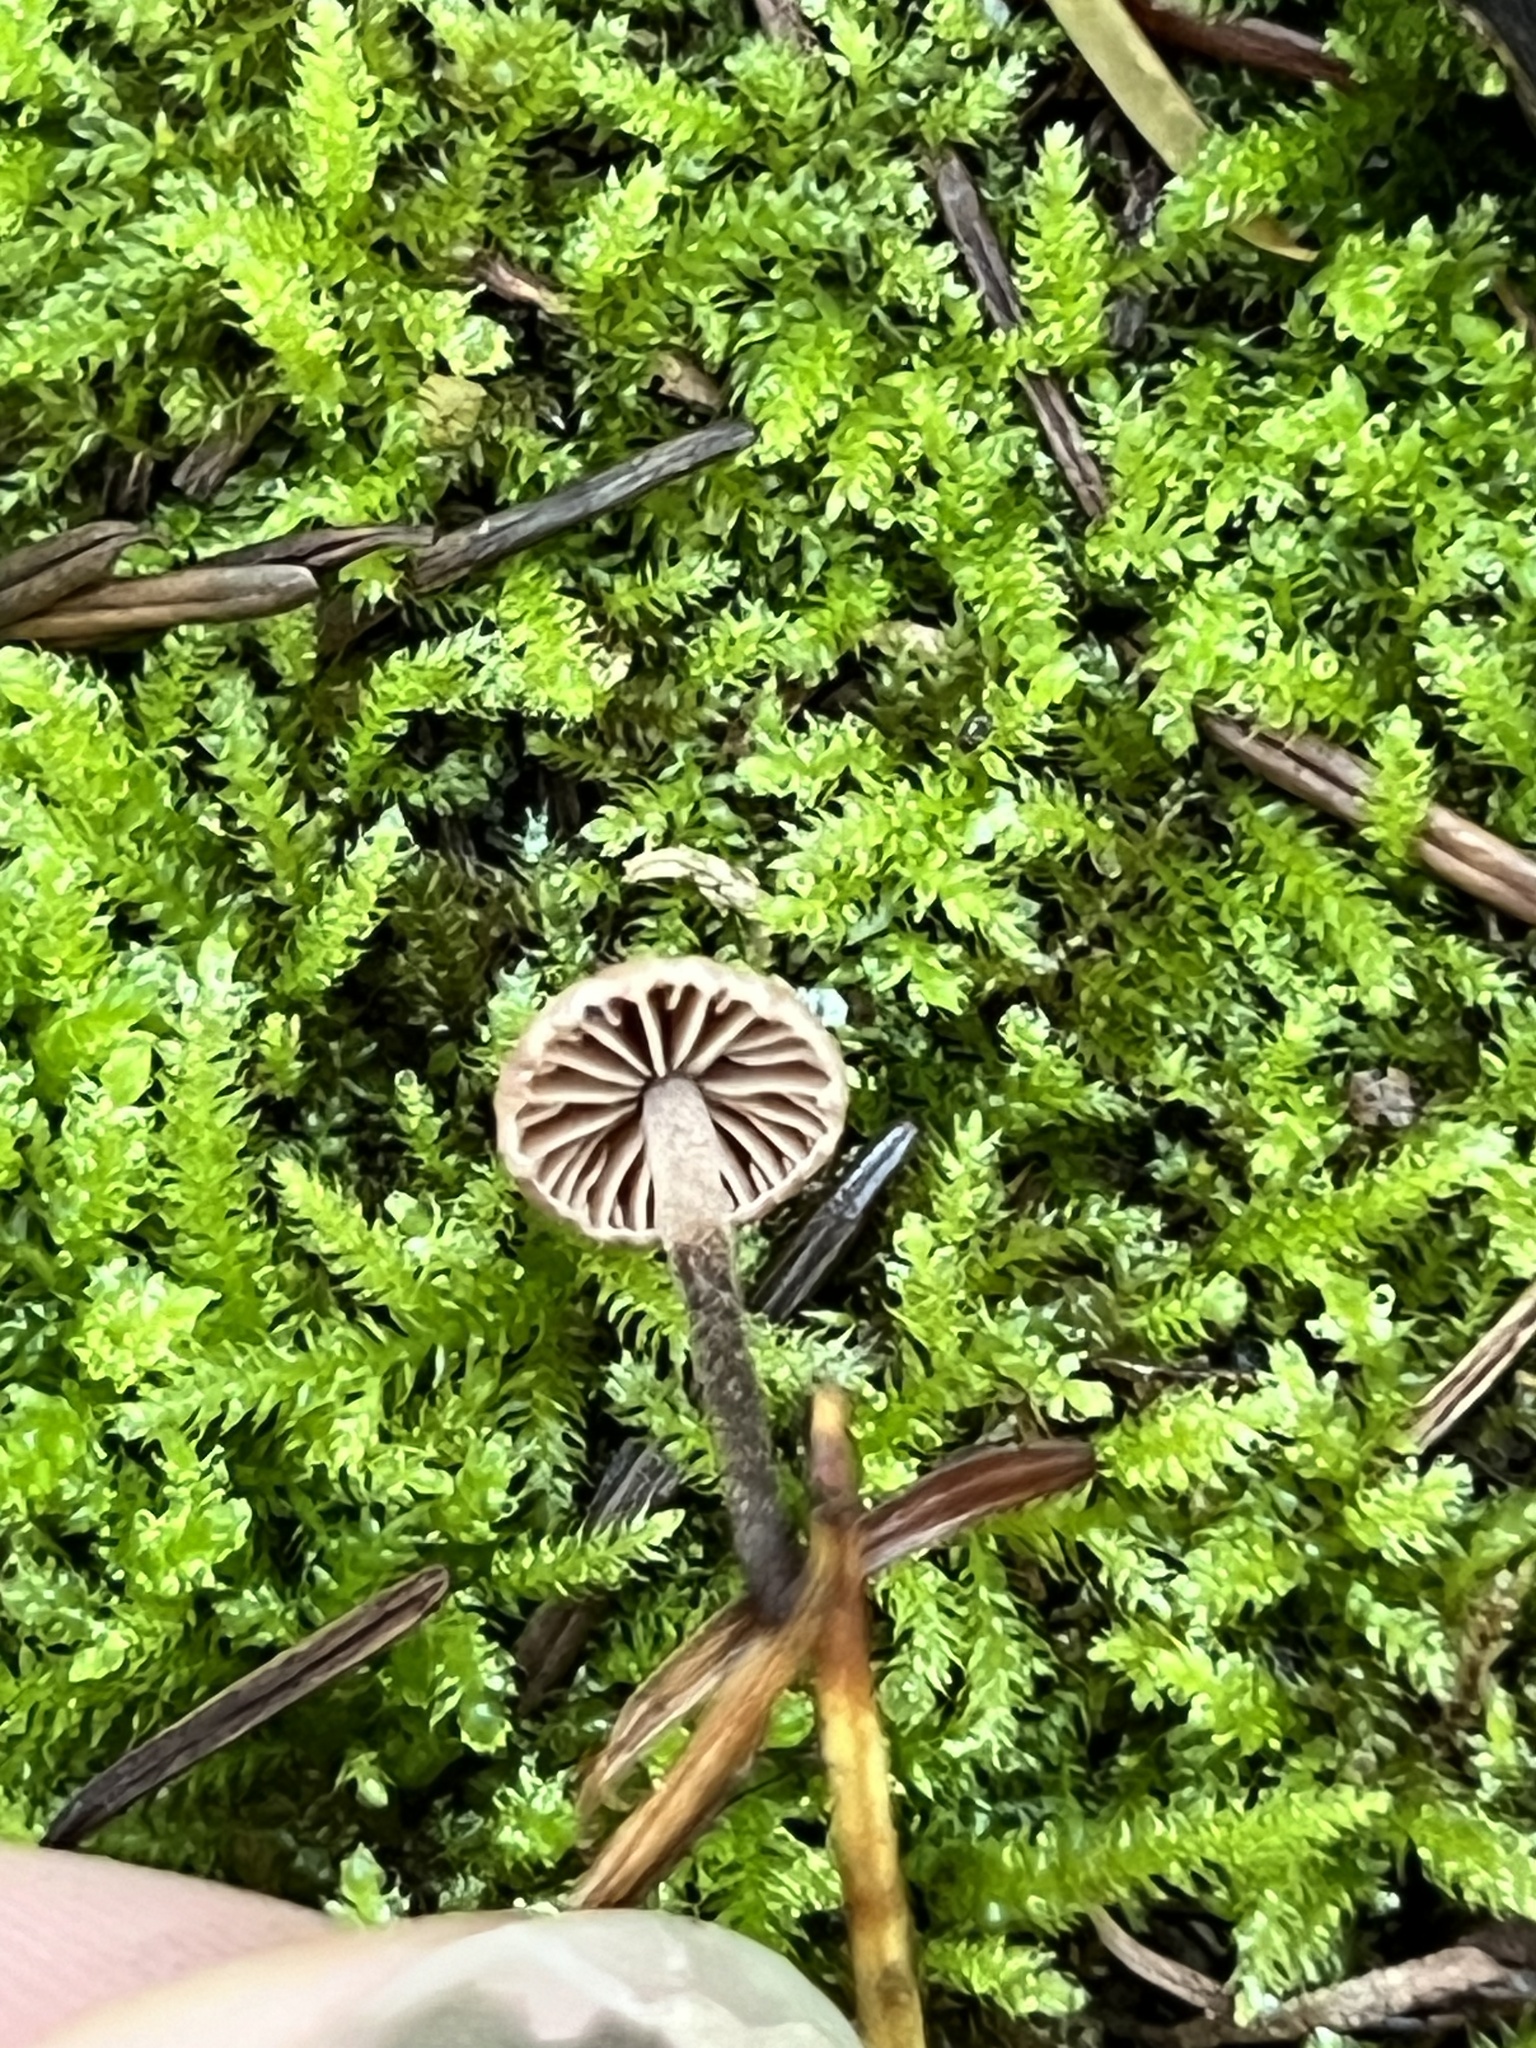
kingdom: Fungi
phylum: Basidiomycota
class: Agaricomycetes
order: Agaricales
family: Omphalotaceae
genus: Paragymnopus
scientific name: Paragymnopus sequoiae
